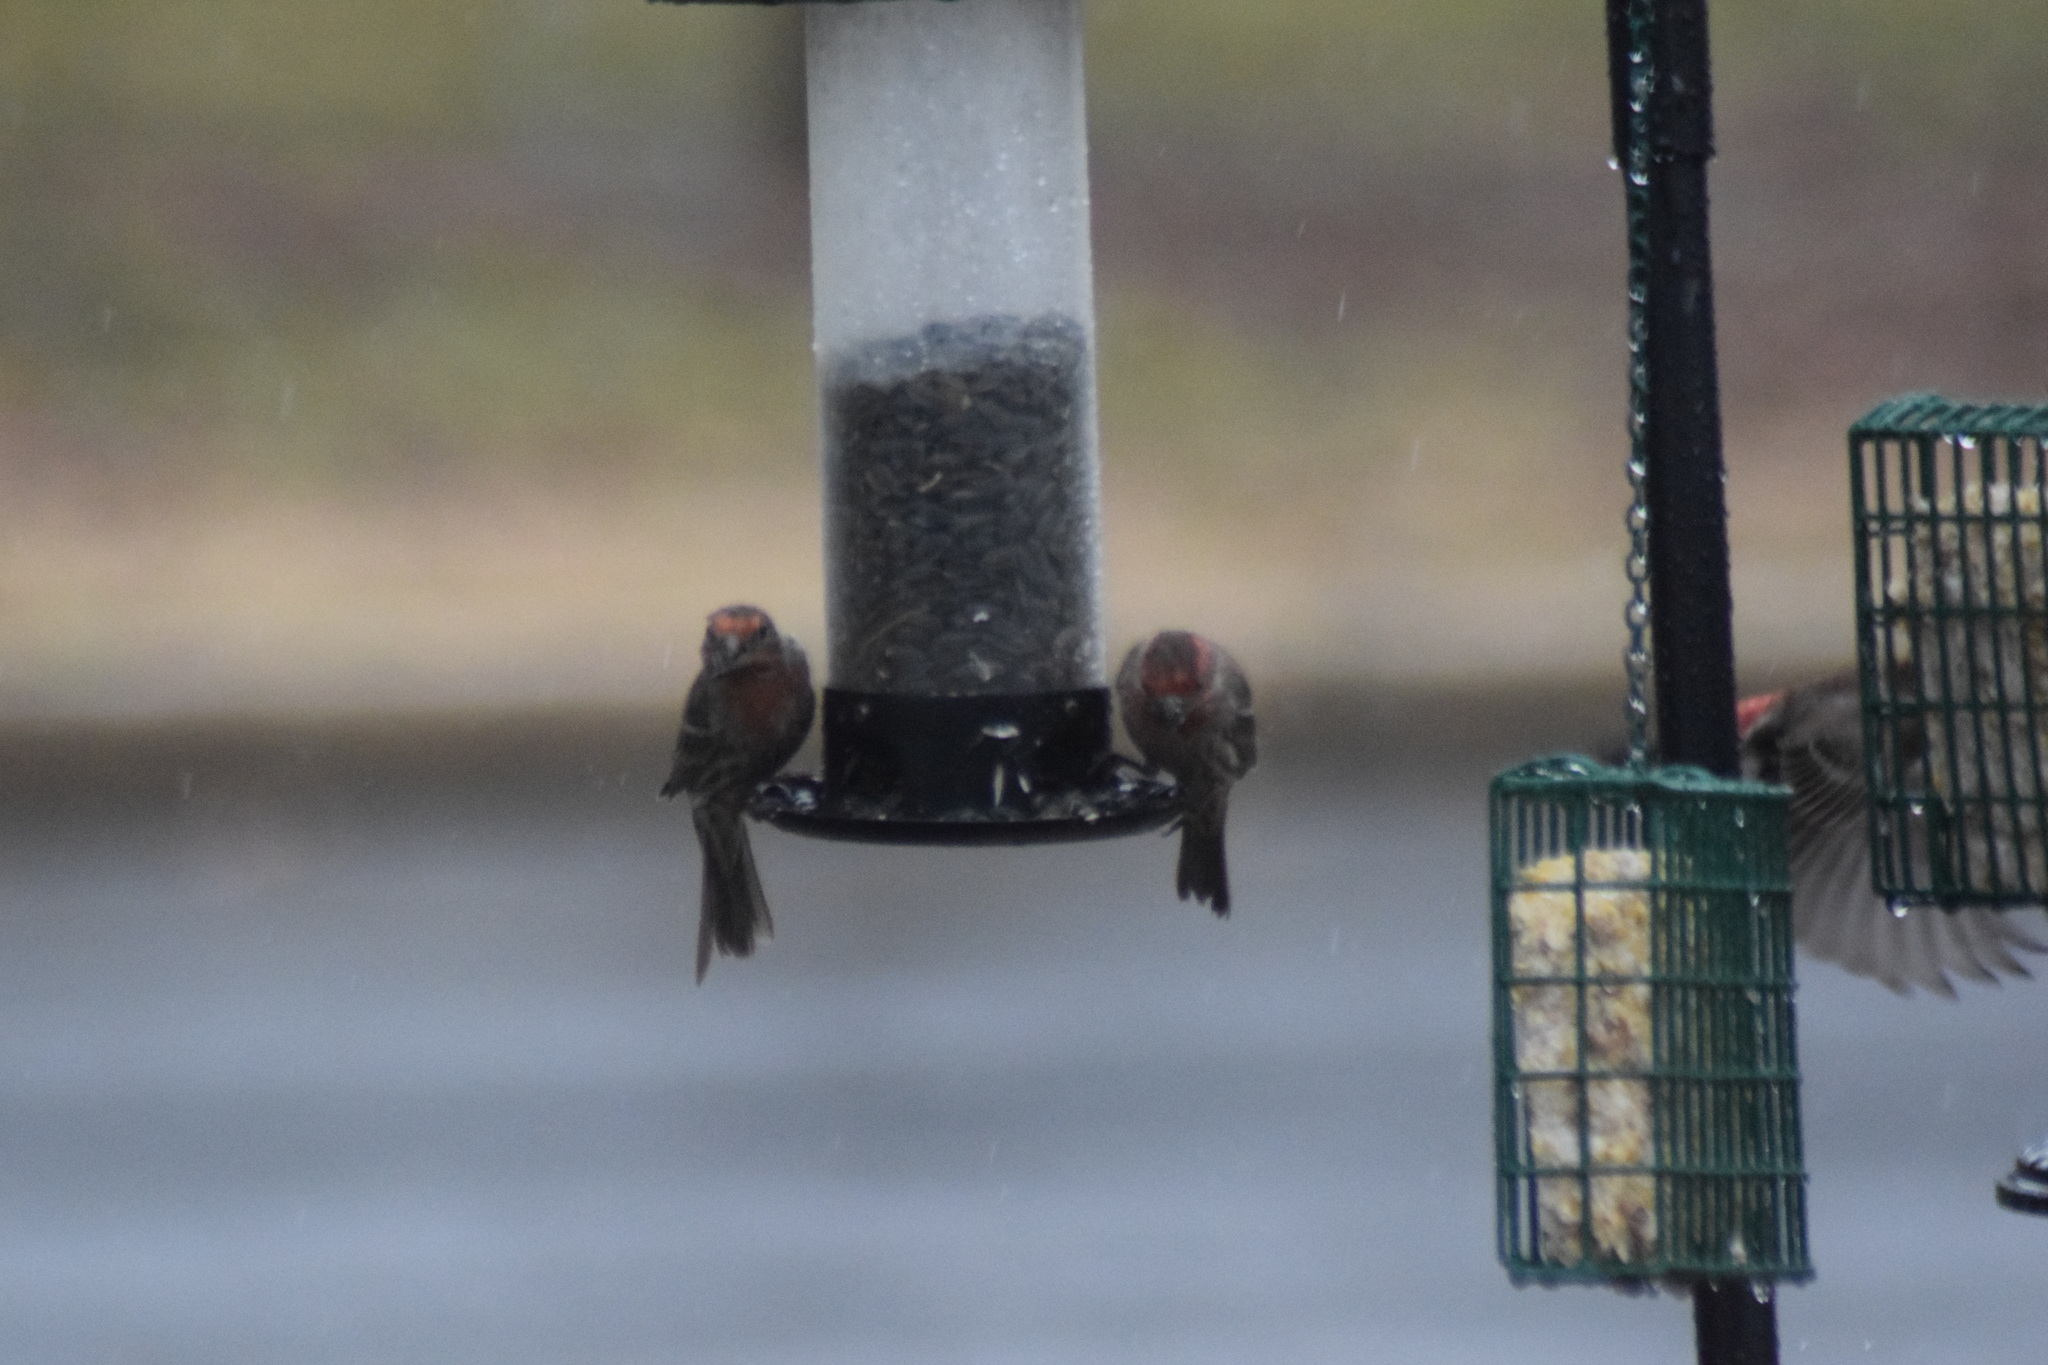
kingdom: Animalia
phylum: Chordata
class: Aves
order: Passeriformes
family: Fringillidae
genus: Haemorhous
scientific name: Haemorhous mexicanus
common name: House finch
